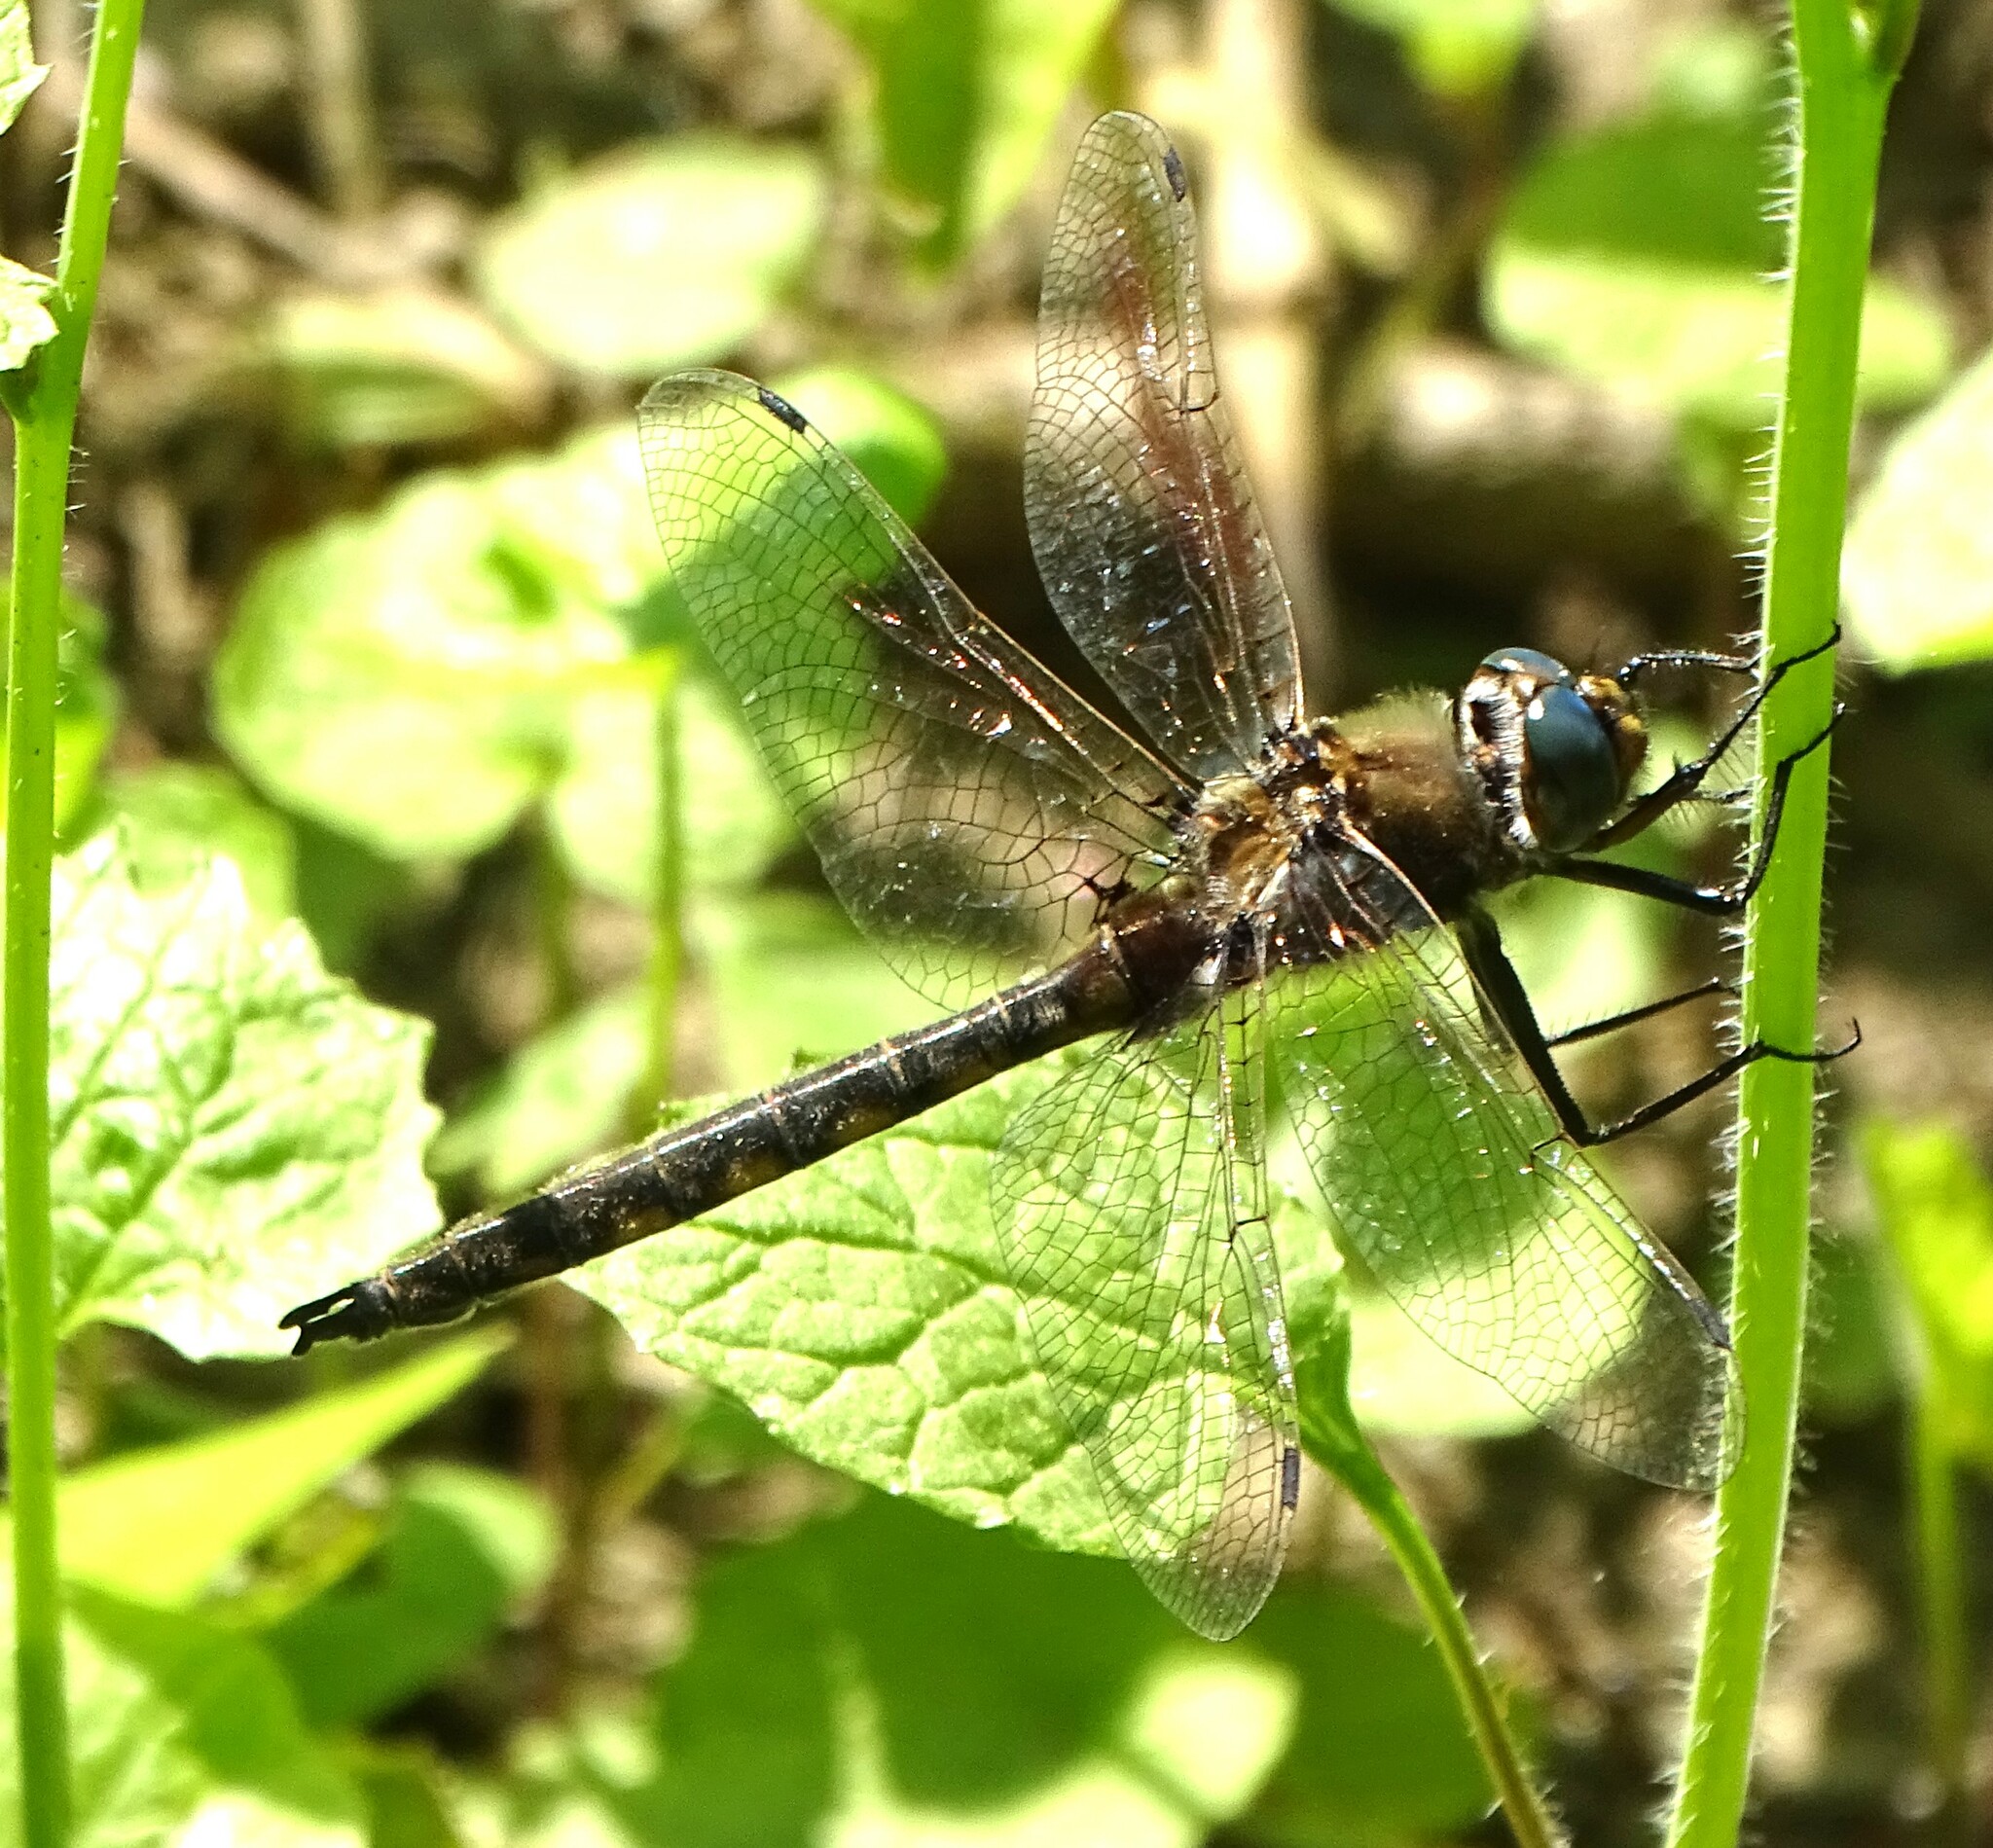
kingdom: Animalia
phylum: Arthropoda
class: Insecta
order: Odonata
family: Corduliidae
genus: Epitheca
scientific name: Epitheca canis
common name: Beaverpond baskettail
